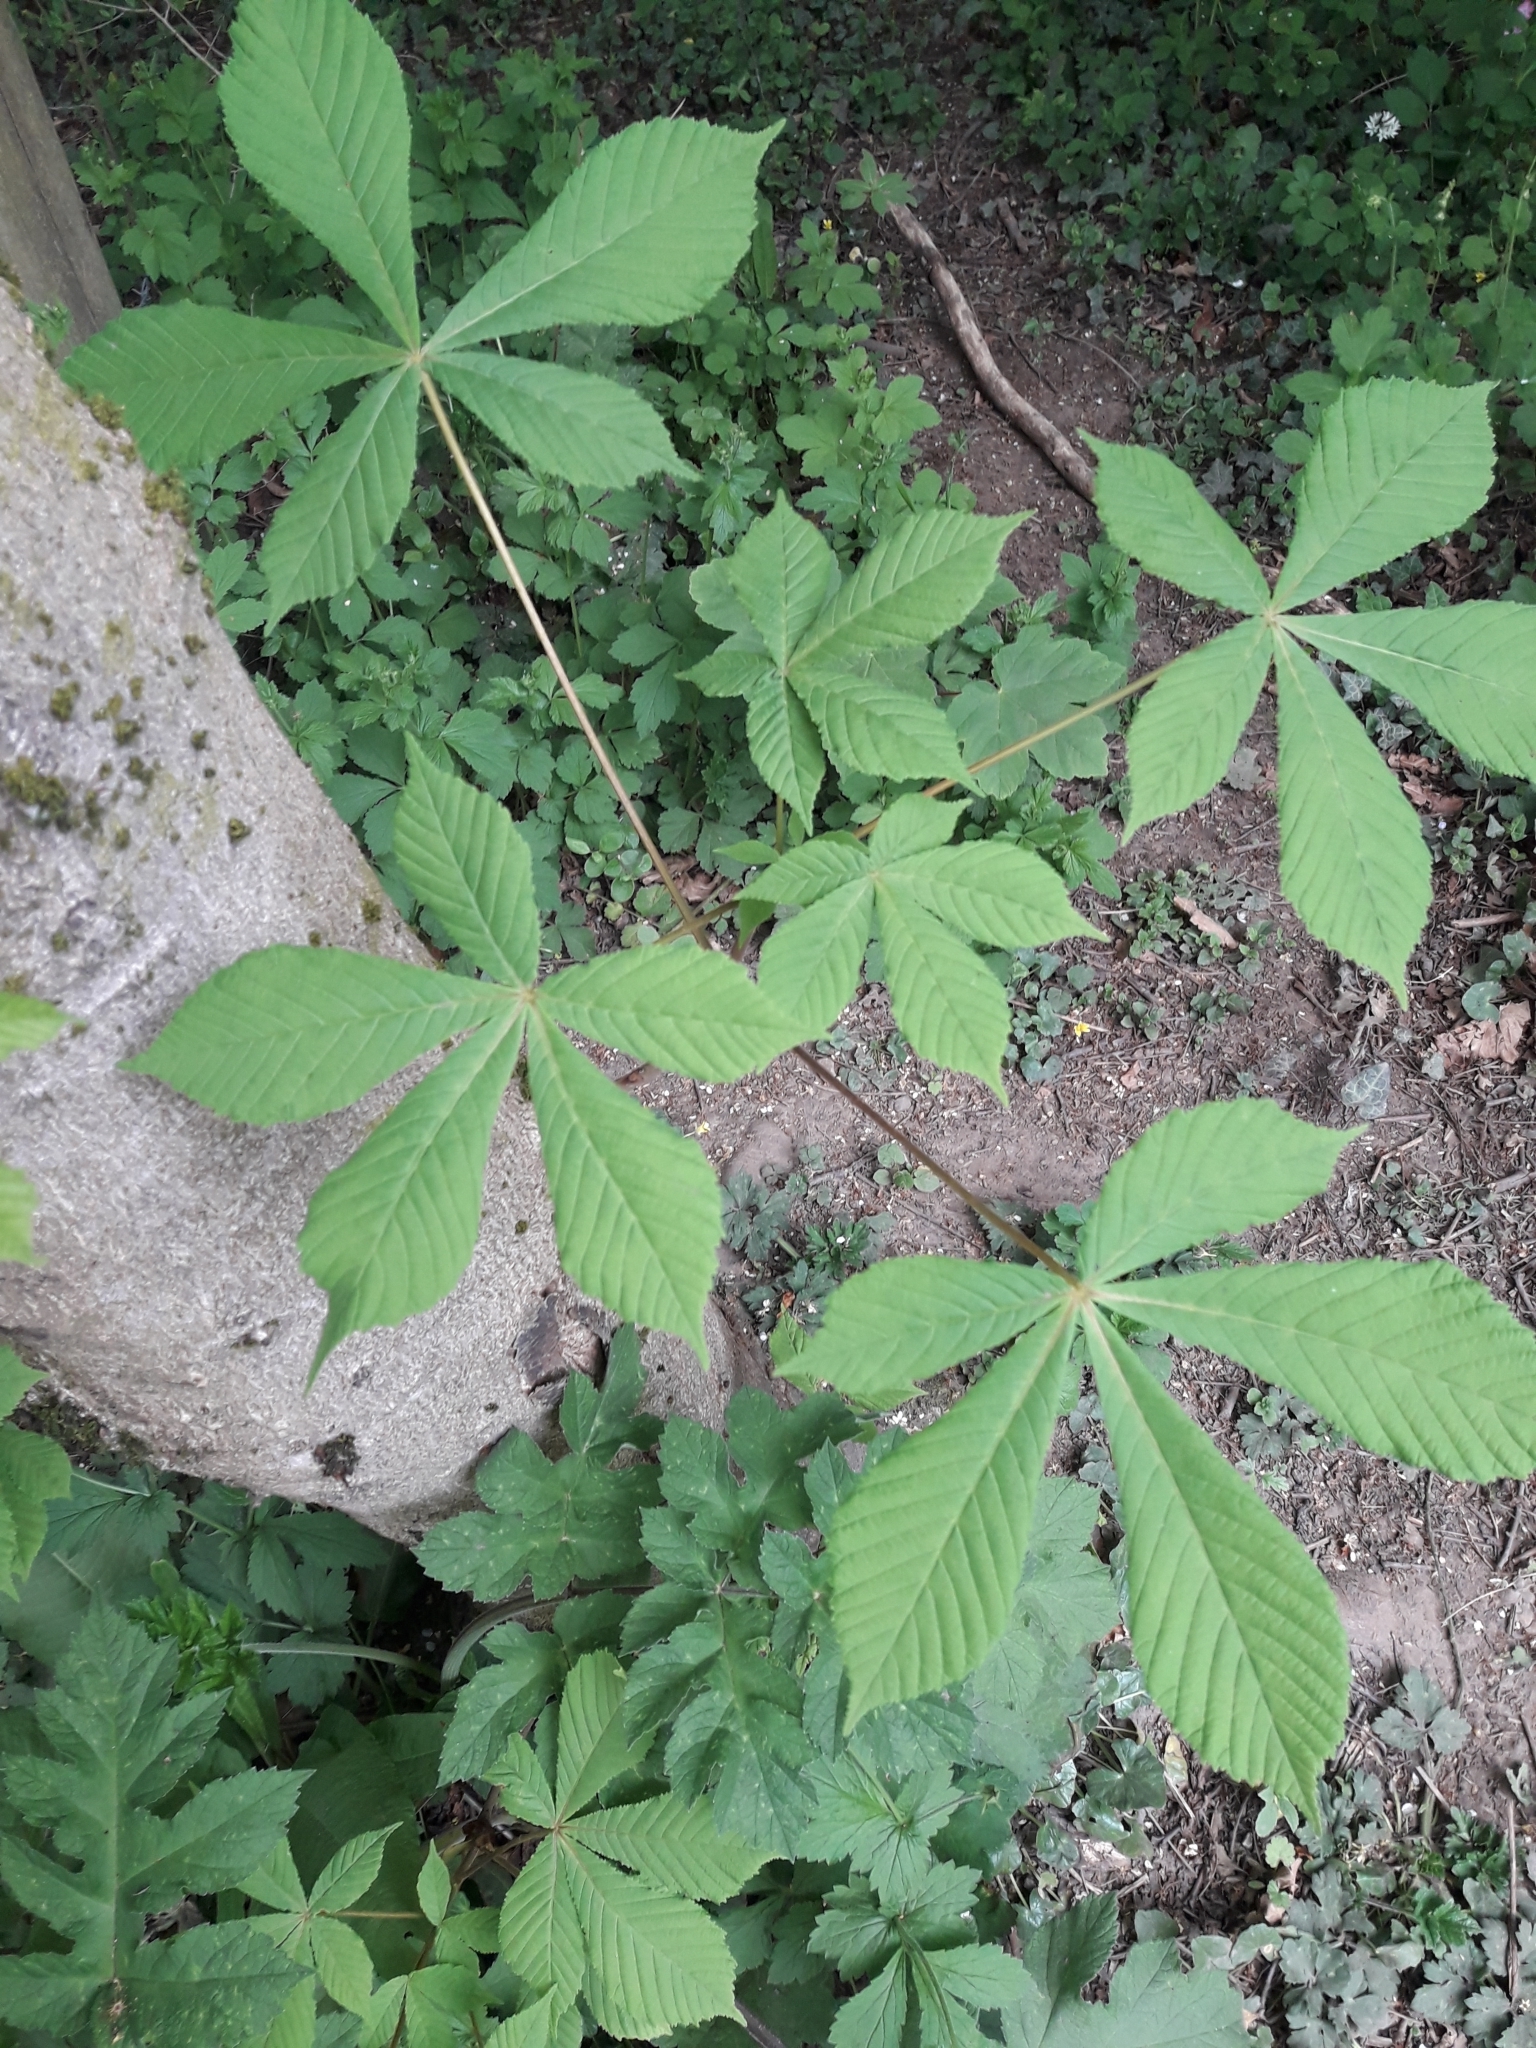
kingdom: Plantae
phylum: Tracheophyta
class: Magnoliopsida
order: Sapindales
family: Sapindaceae
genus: Aesculus
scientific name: Aesculus hippocastanum
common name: Horse-chestnut
